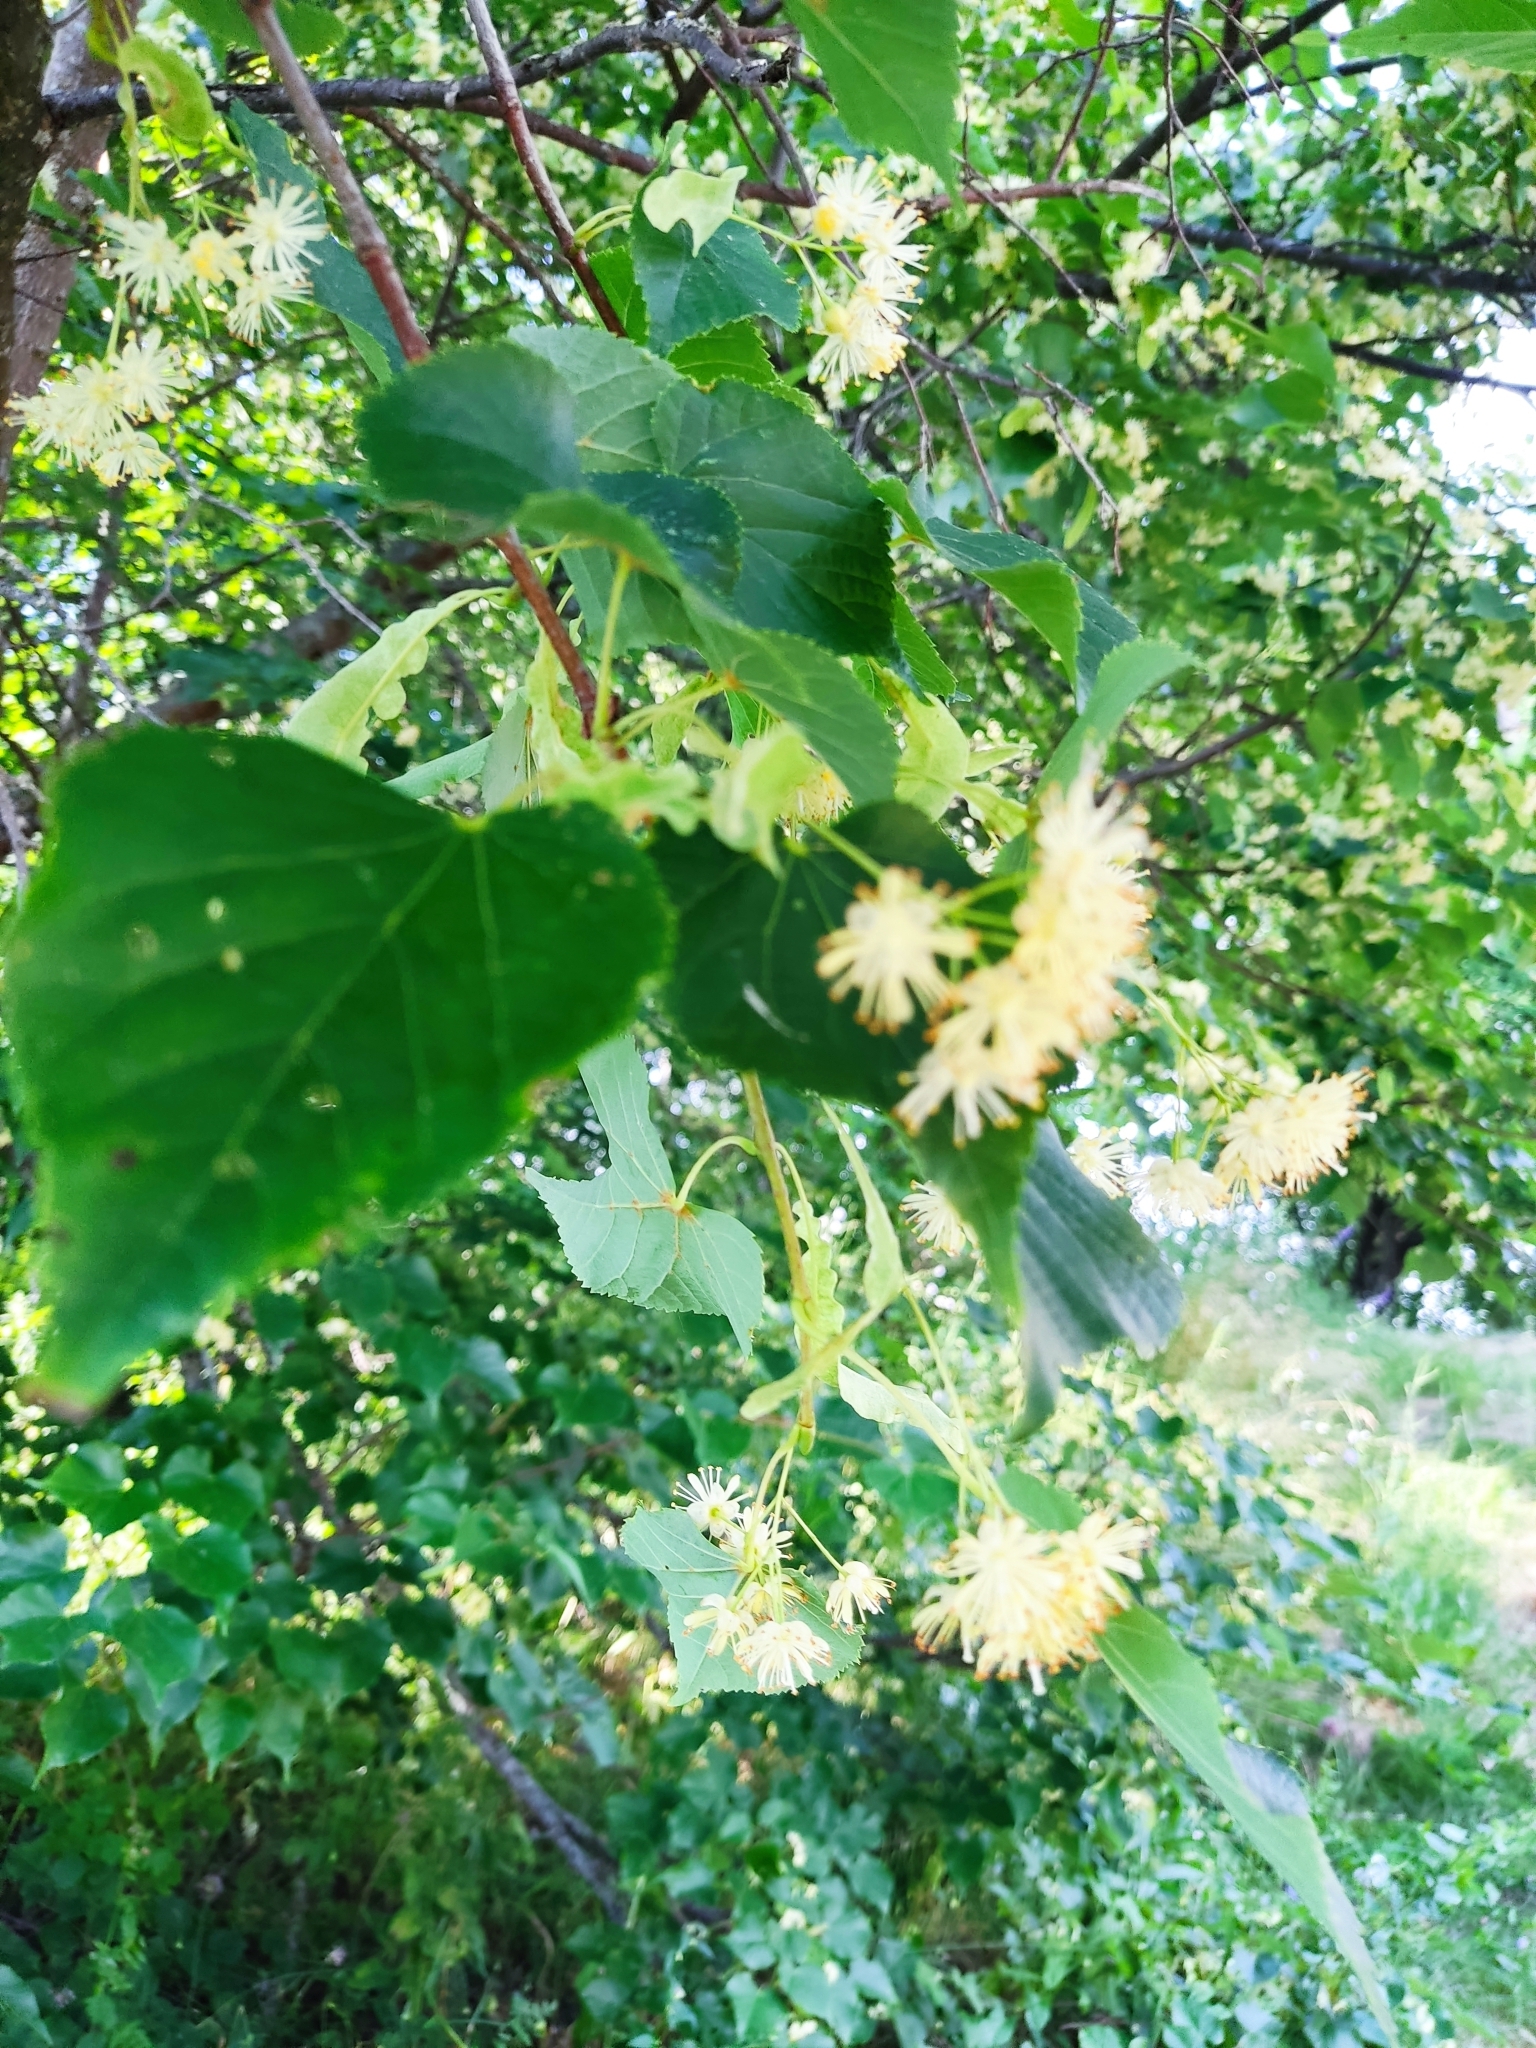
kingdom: Plantae
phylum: Tracheophyta
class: Magnoliopsida
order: Malvales
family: Malvaceae
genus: Tilia
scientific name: Tilia cordata
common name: Small-leaved lime
